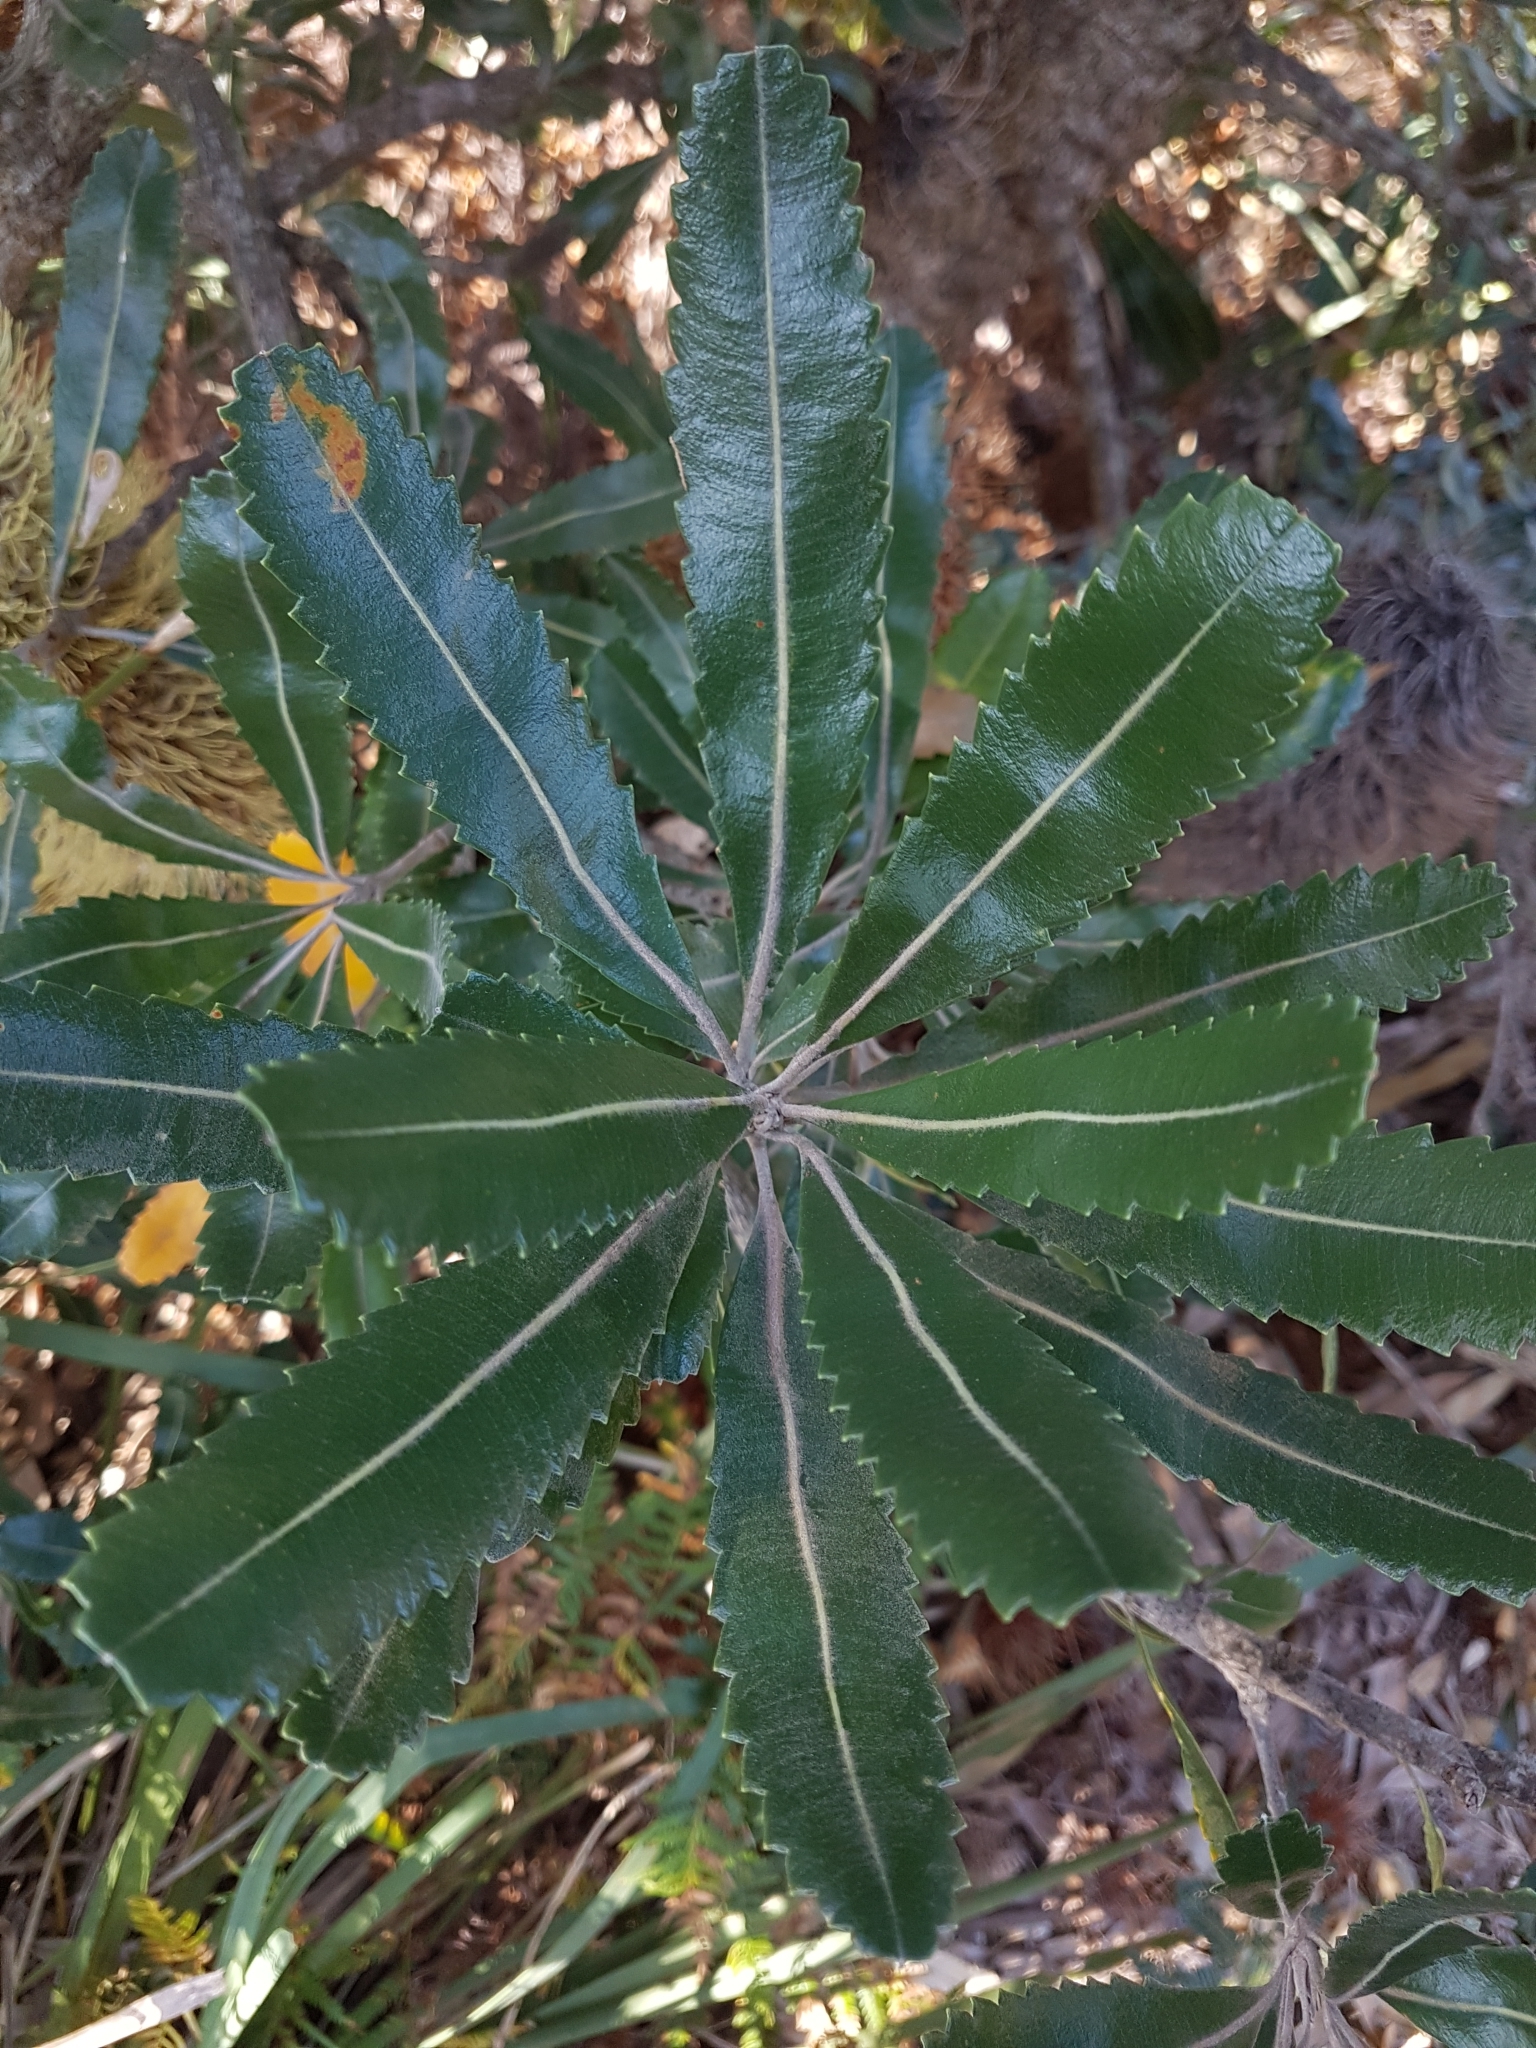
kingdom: Plantae
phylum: Tracheophyta
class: Magnoliopsida
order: Proteales
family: Proteaceae
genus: Banksia
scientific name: Banksia serrata
